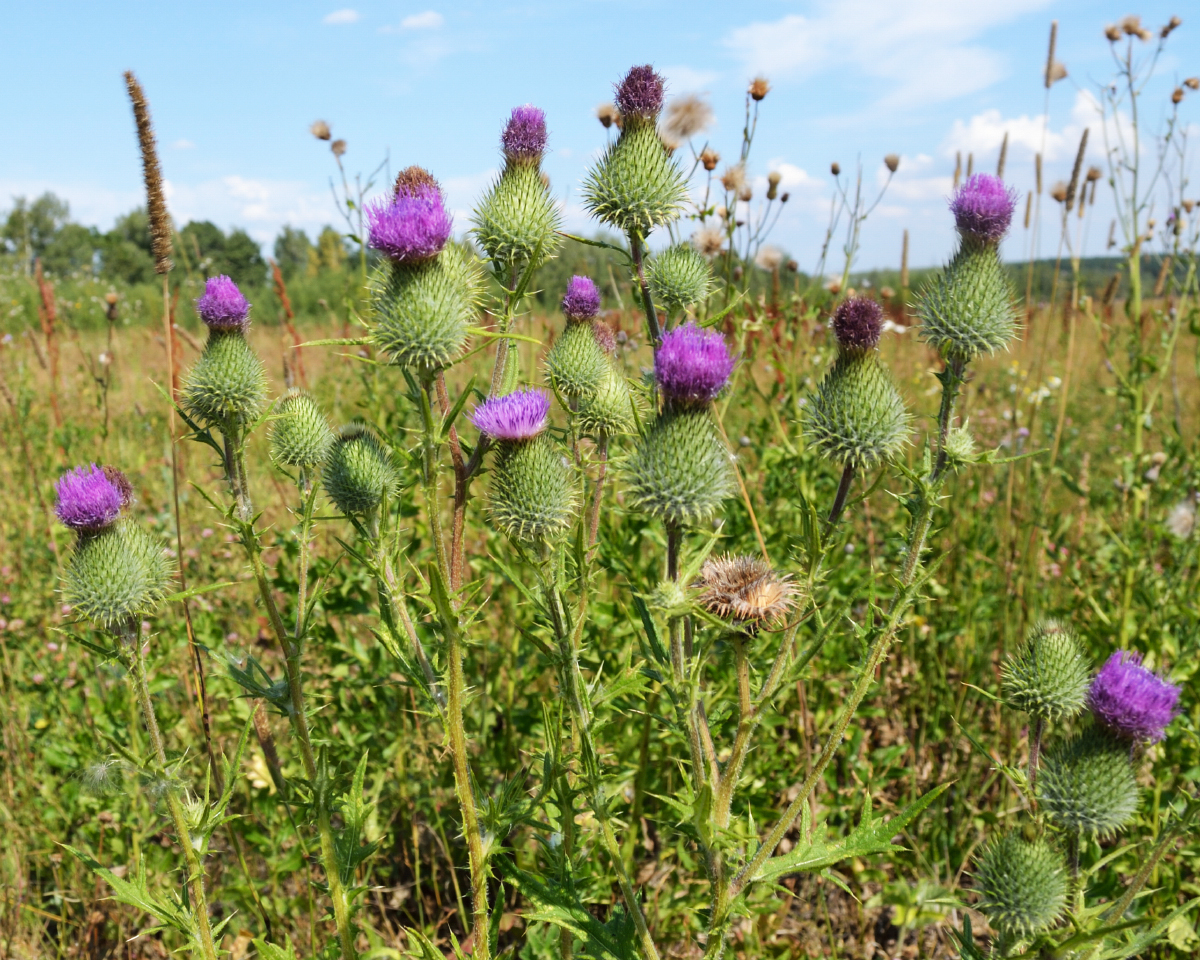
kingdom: Plantae
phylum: Tracheophyta
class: Magnoliopsida
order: Asterales
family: Asteraceae
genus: Cirsium
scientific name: Cirsium vulgare
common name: Bull thistle
